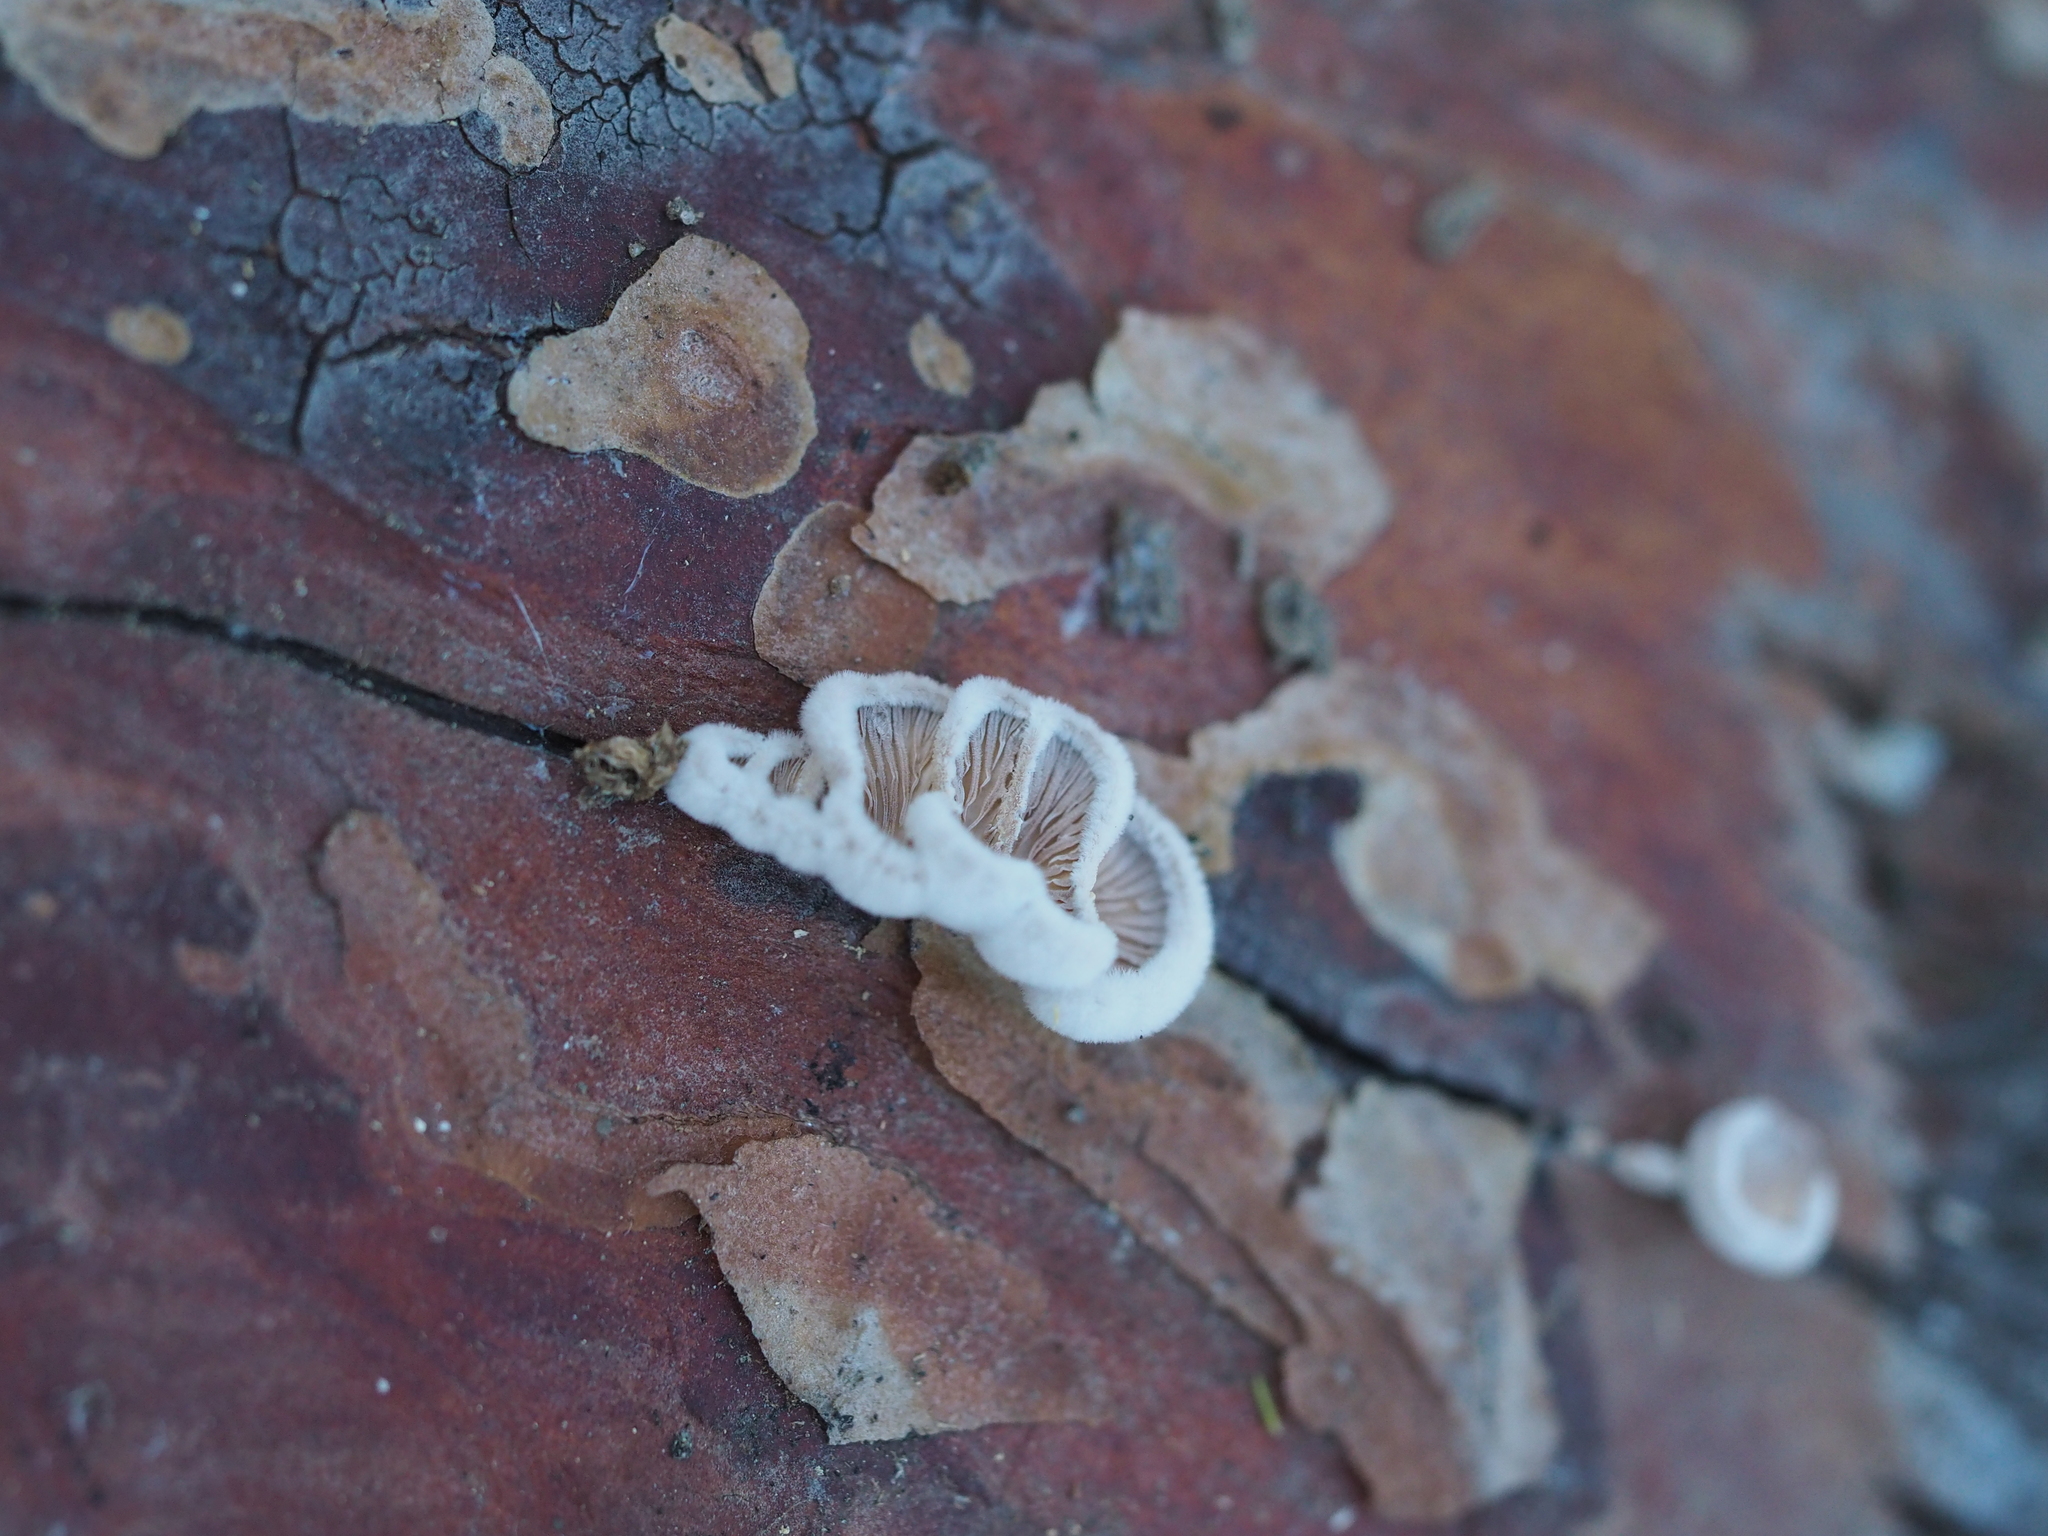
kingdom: Fungi
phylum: Basidiomycota
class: Agaricomycetes
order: Agaricales
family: Schizophyllaceae
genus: Schizophyllum
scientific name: Schizophyllum commune
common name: Common porecrust
